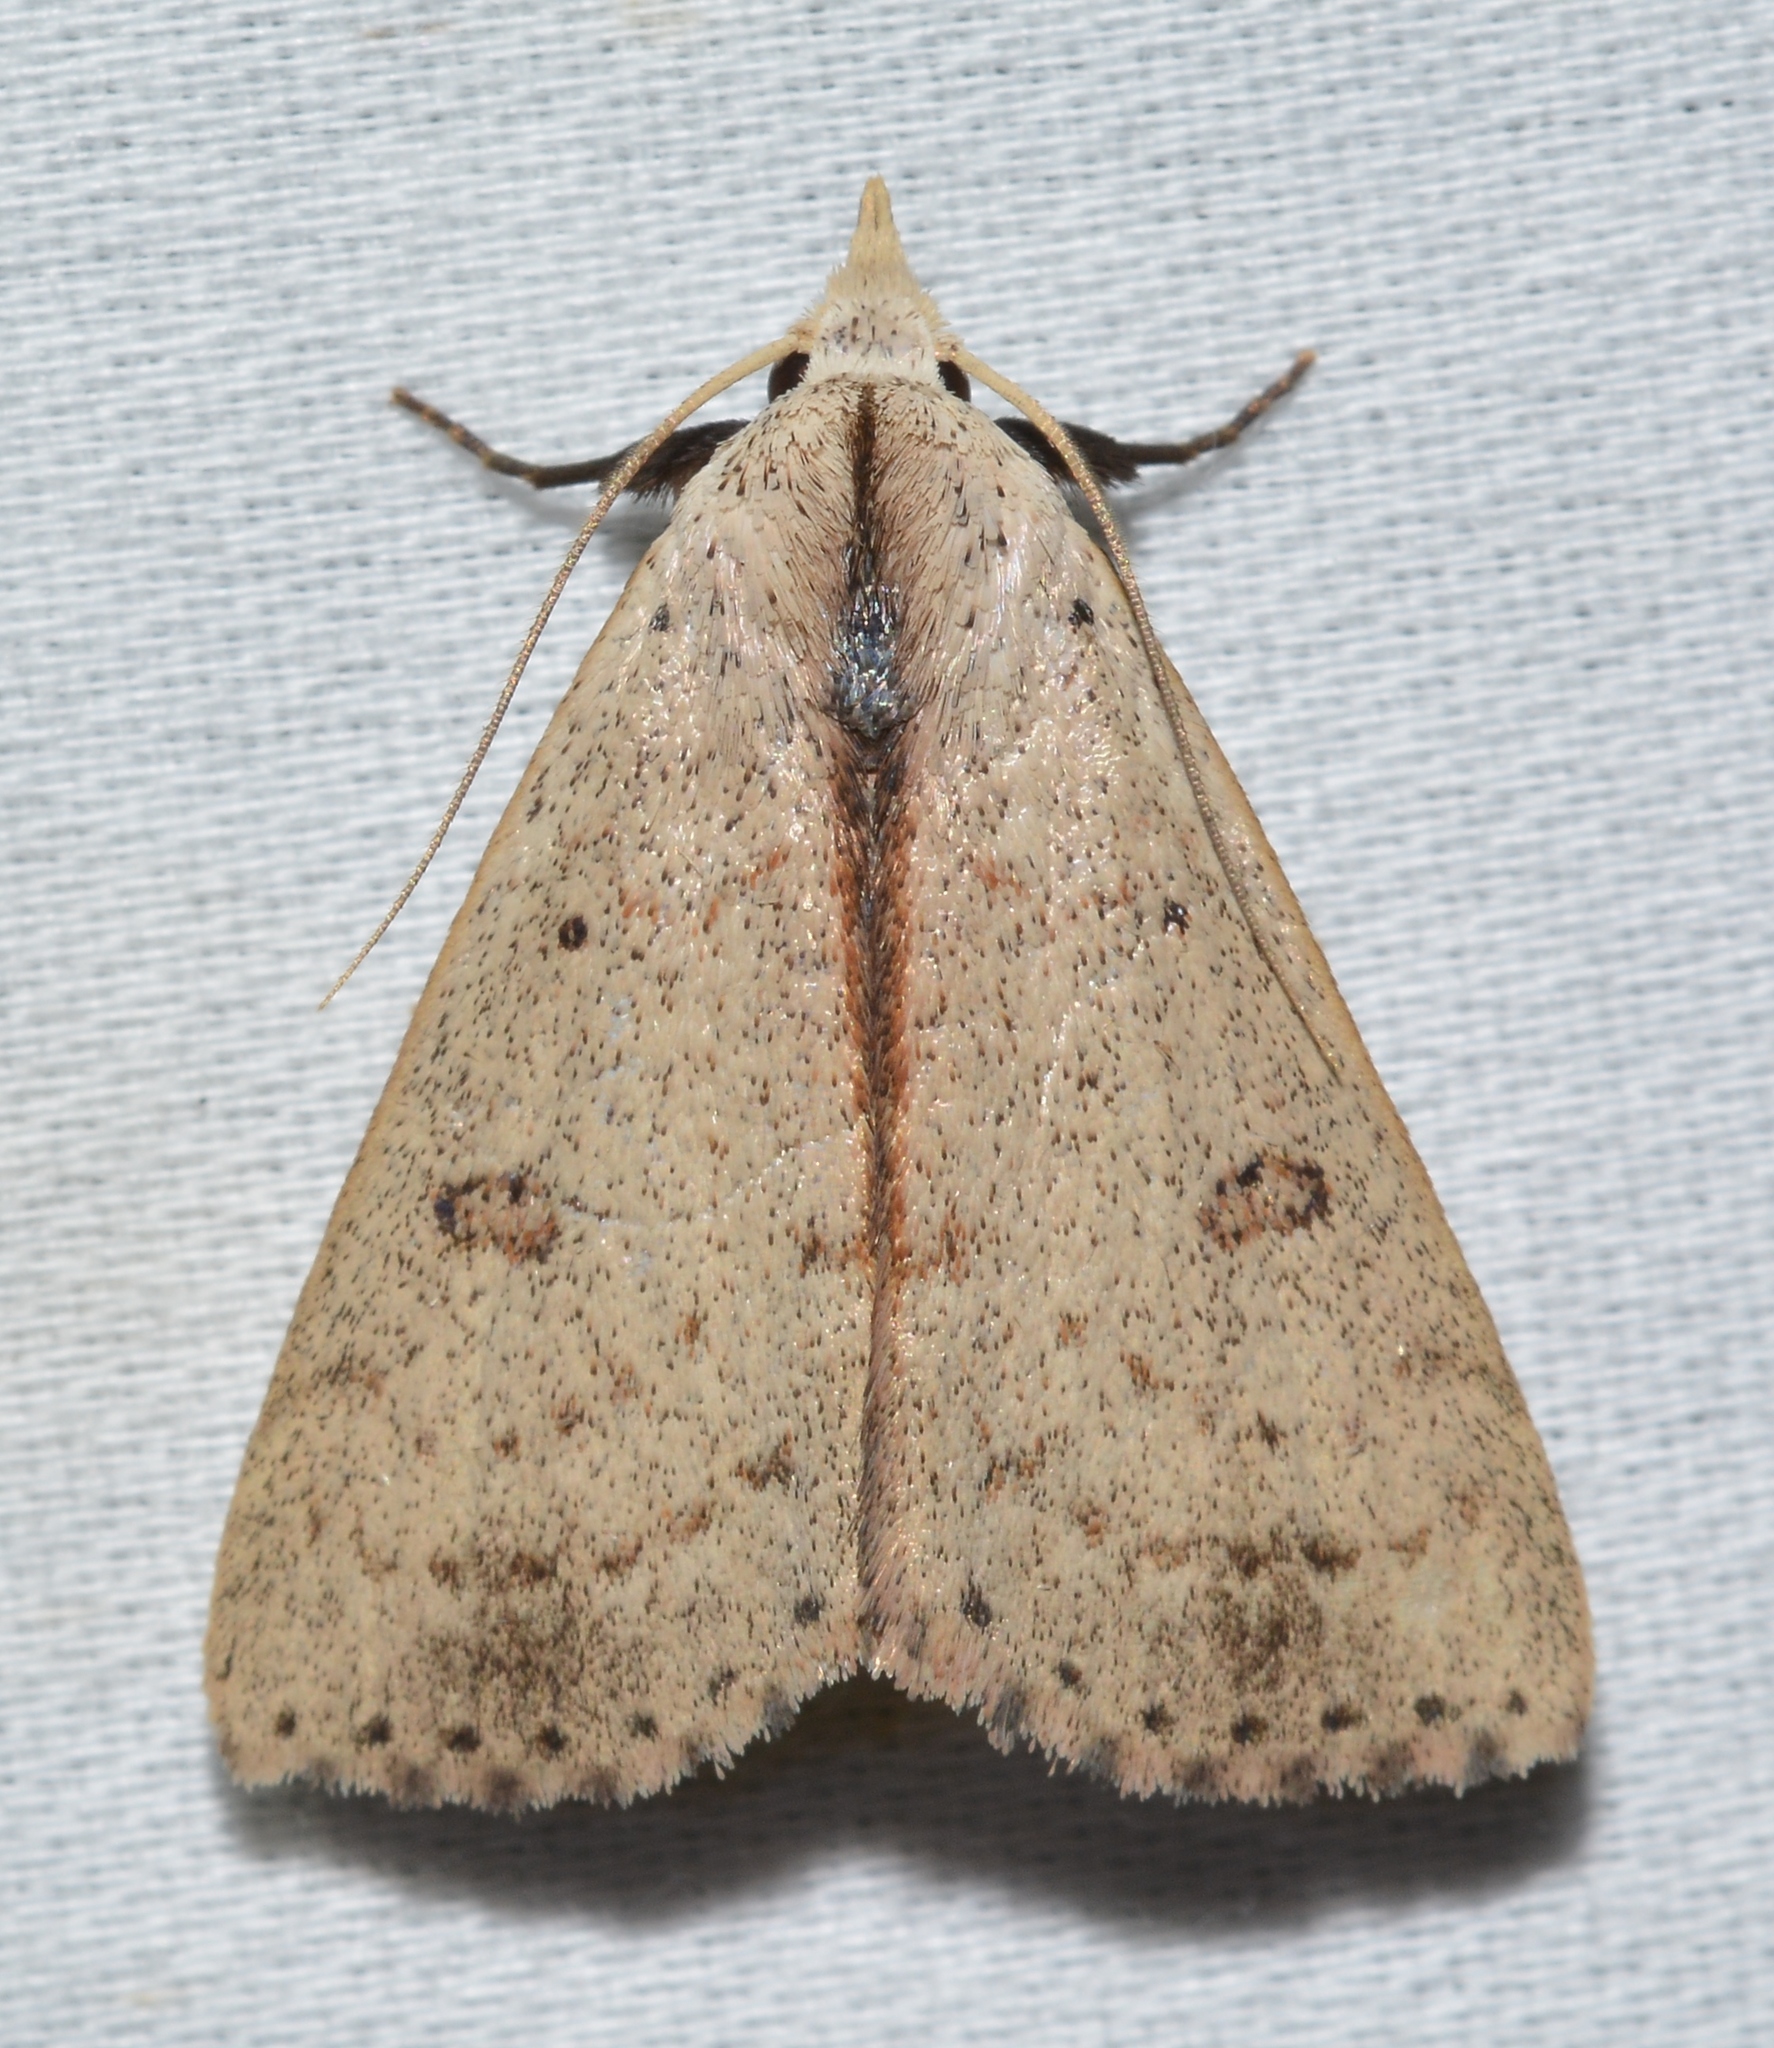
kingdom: Animalia
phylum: Arthropoda
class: Insecta
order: Lepidoptera
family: Erebidae
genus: Scolecocampa
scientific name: Scolecocampa liburna
